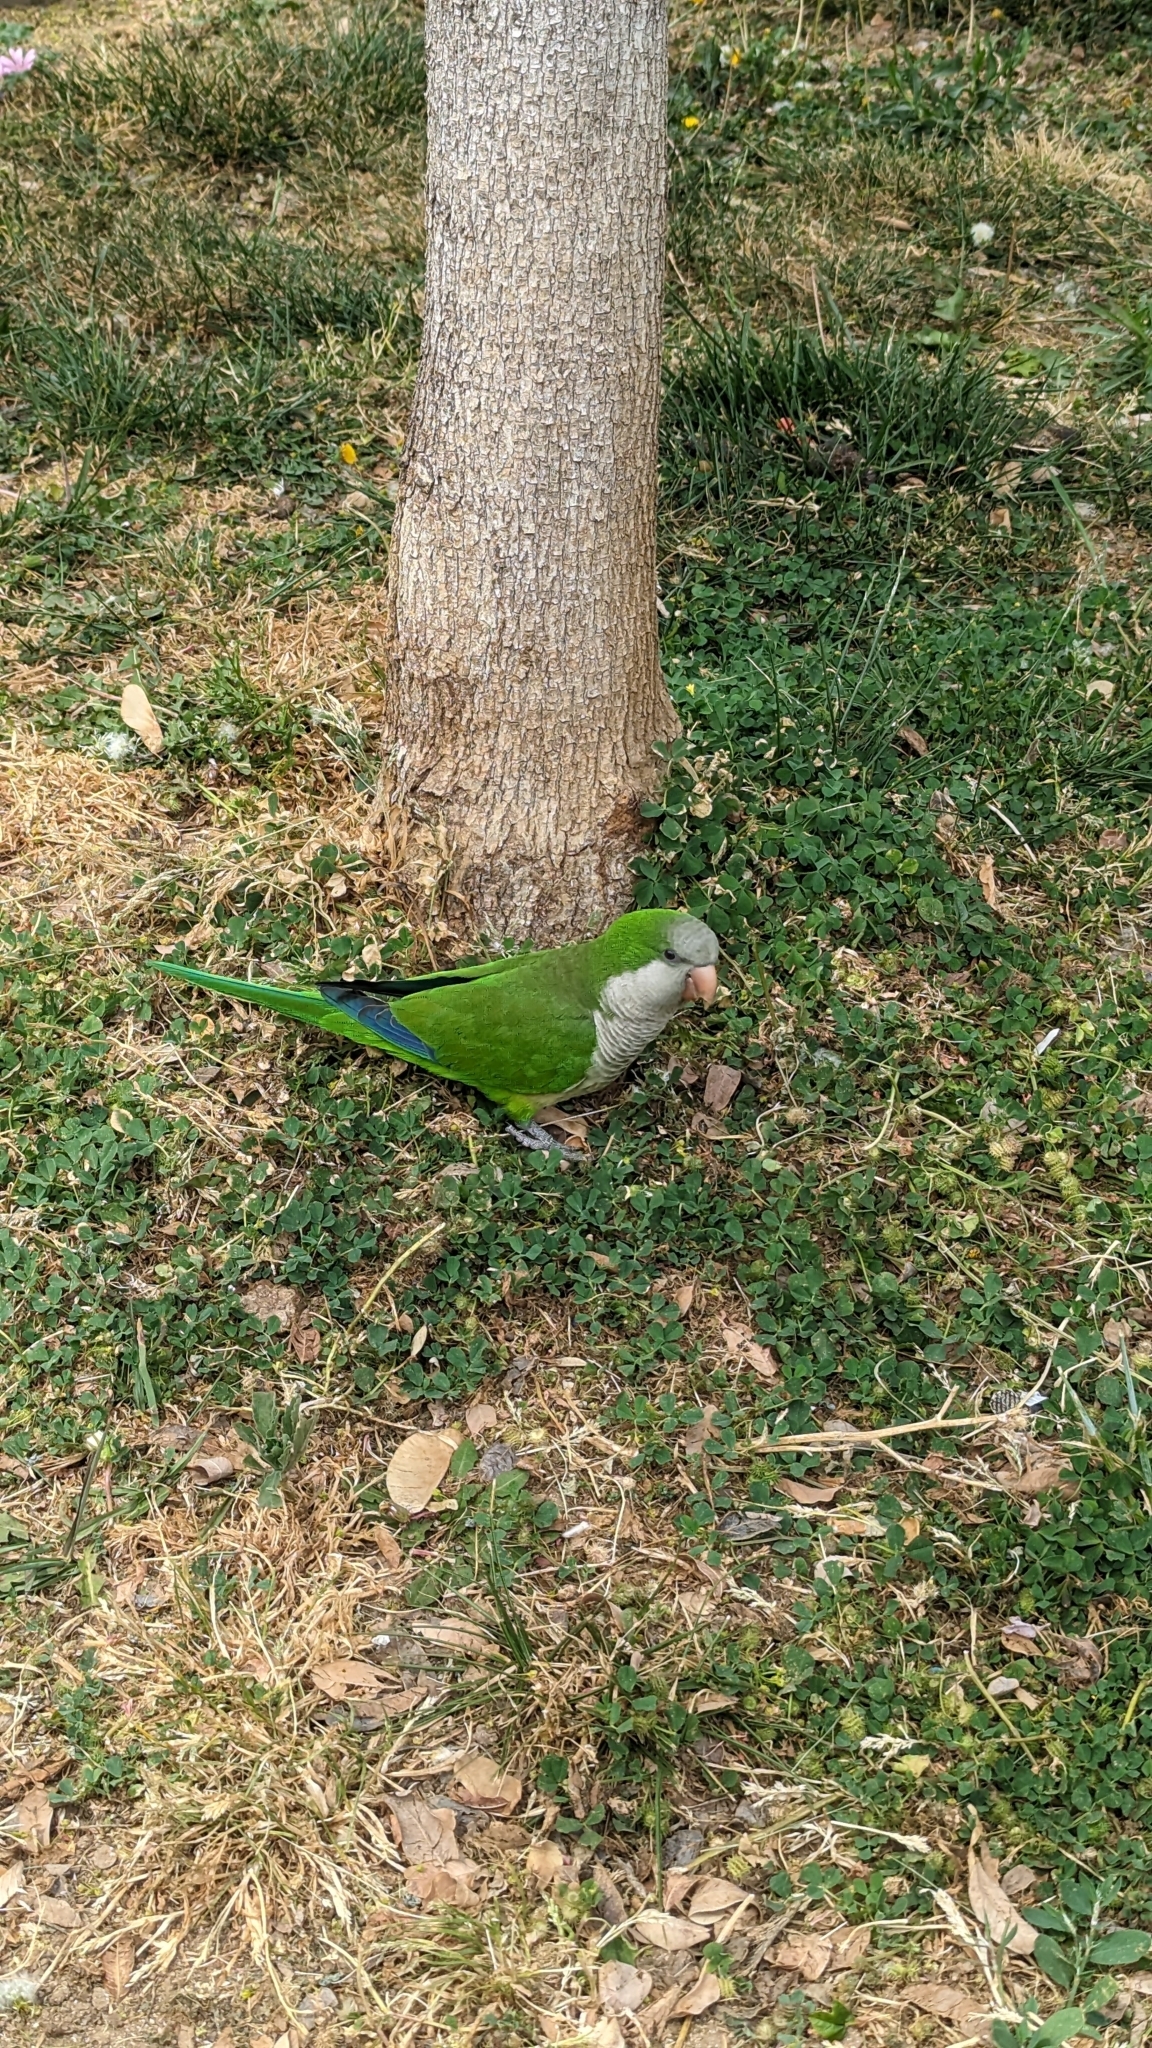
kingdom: Animalia
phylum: Chordata
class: Aves
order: Psittaciformes
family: Psittacidae
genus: Myiopsitta
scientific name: Myiopsitta monachus
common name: Monk parakeet
